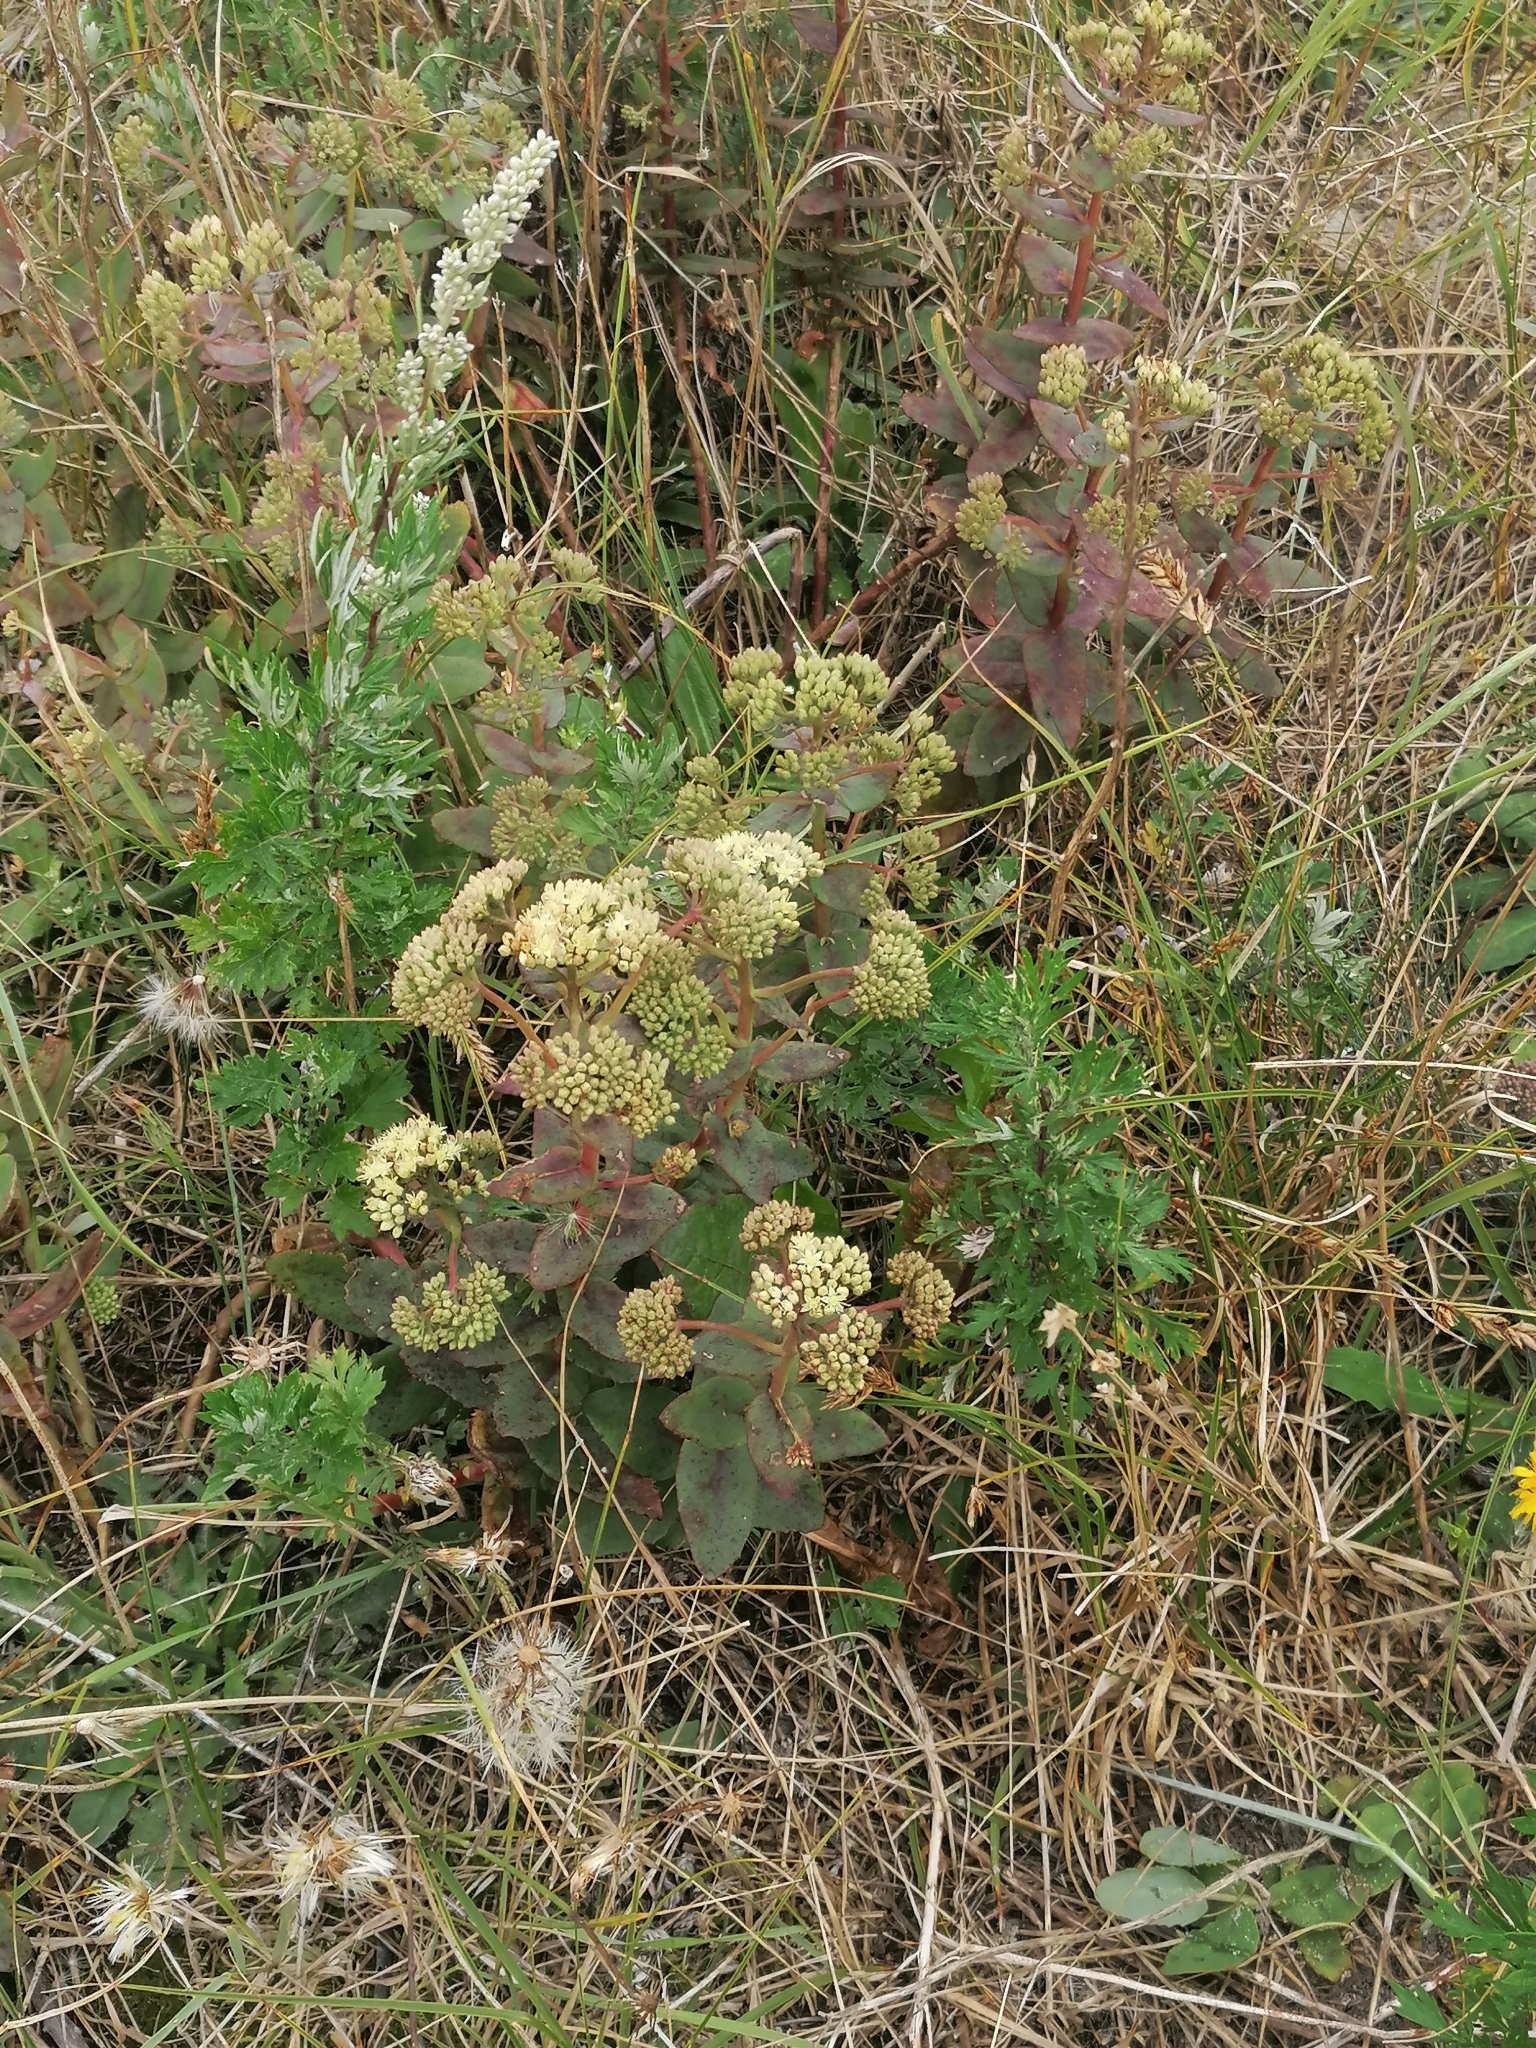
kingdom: Plantae
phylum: Tracheophyta
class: Magnoliopsida
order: Saxifragales
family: Crassulaceae
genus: Hylotelephium
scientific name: Hylotelephium maximum
